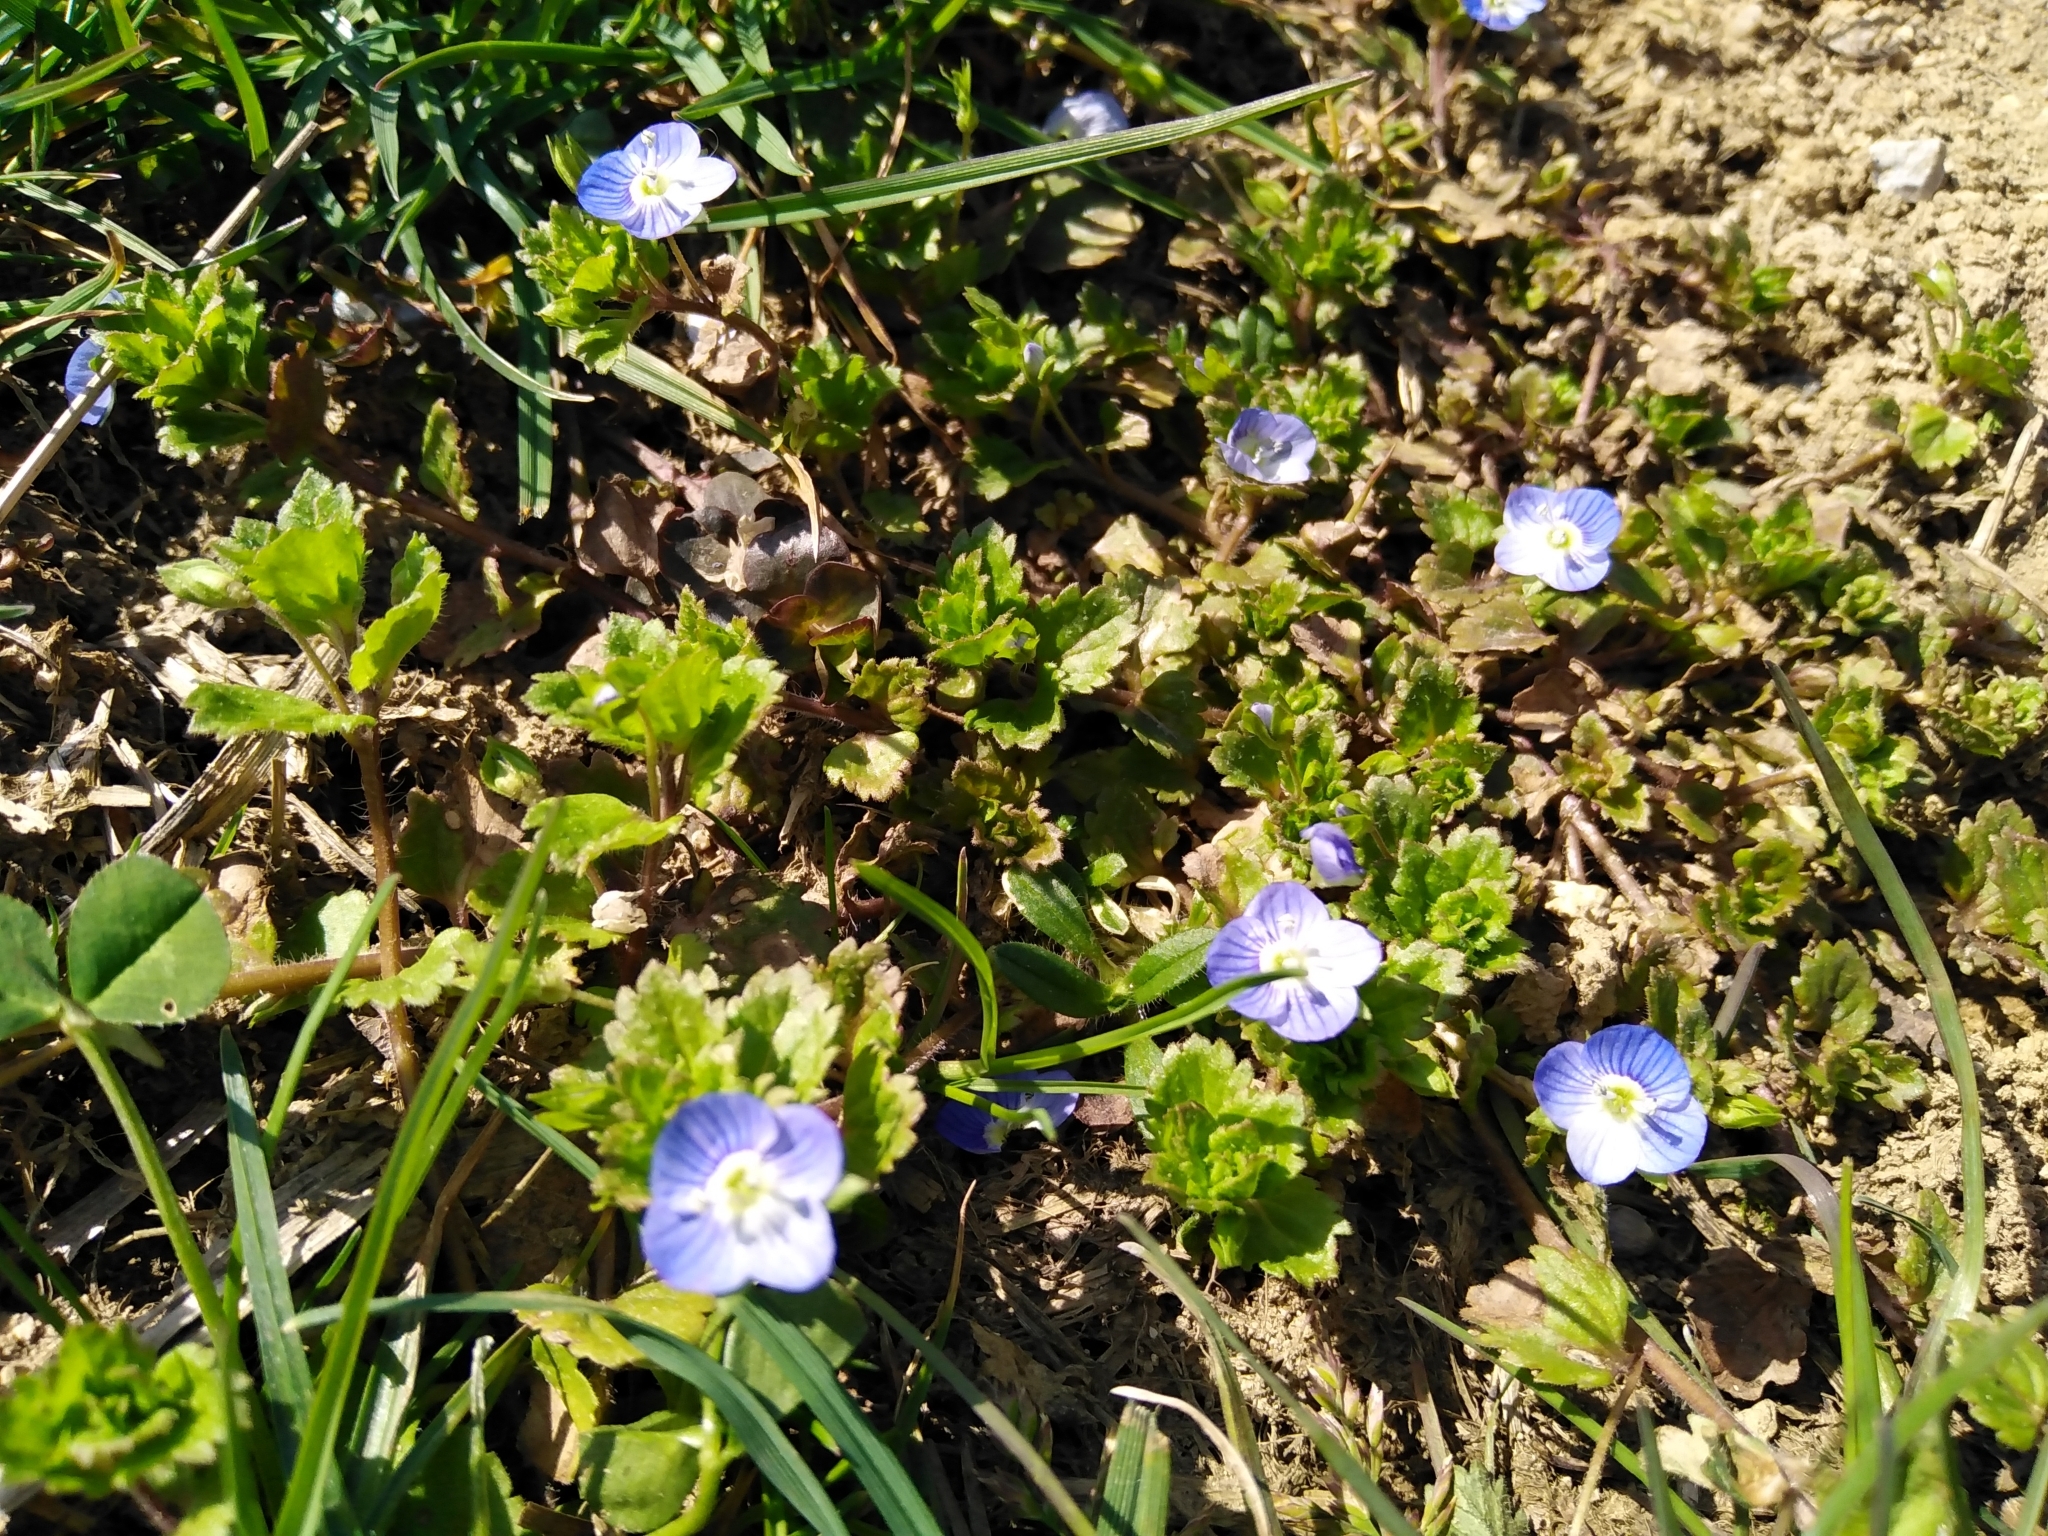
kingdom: Plantae
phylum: Tracheophyta
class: Magnoliopsida
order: Lamiales
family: Plantaginaceae
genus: Veronica
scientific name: Veronica persica
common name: Common field-speedwell
